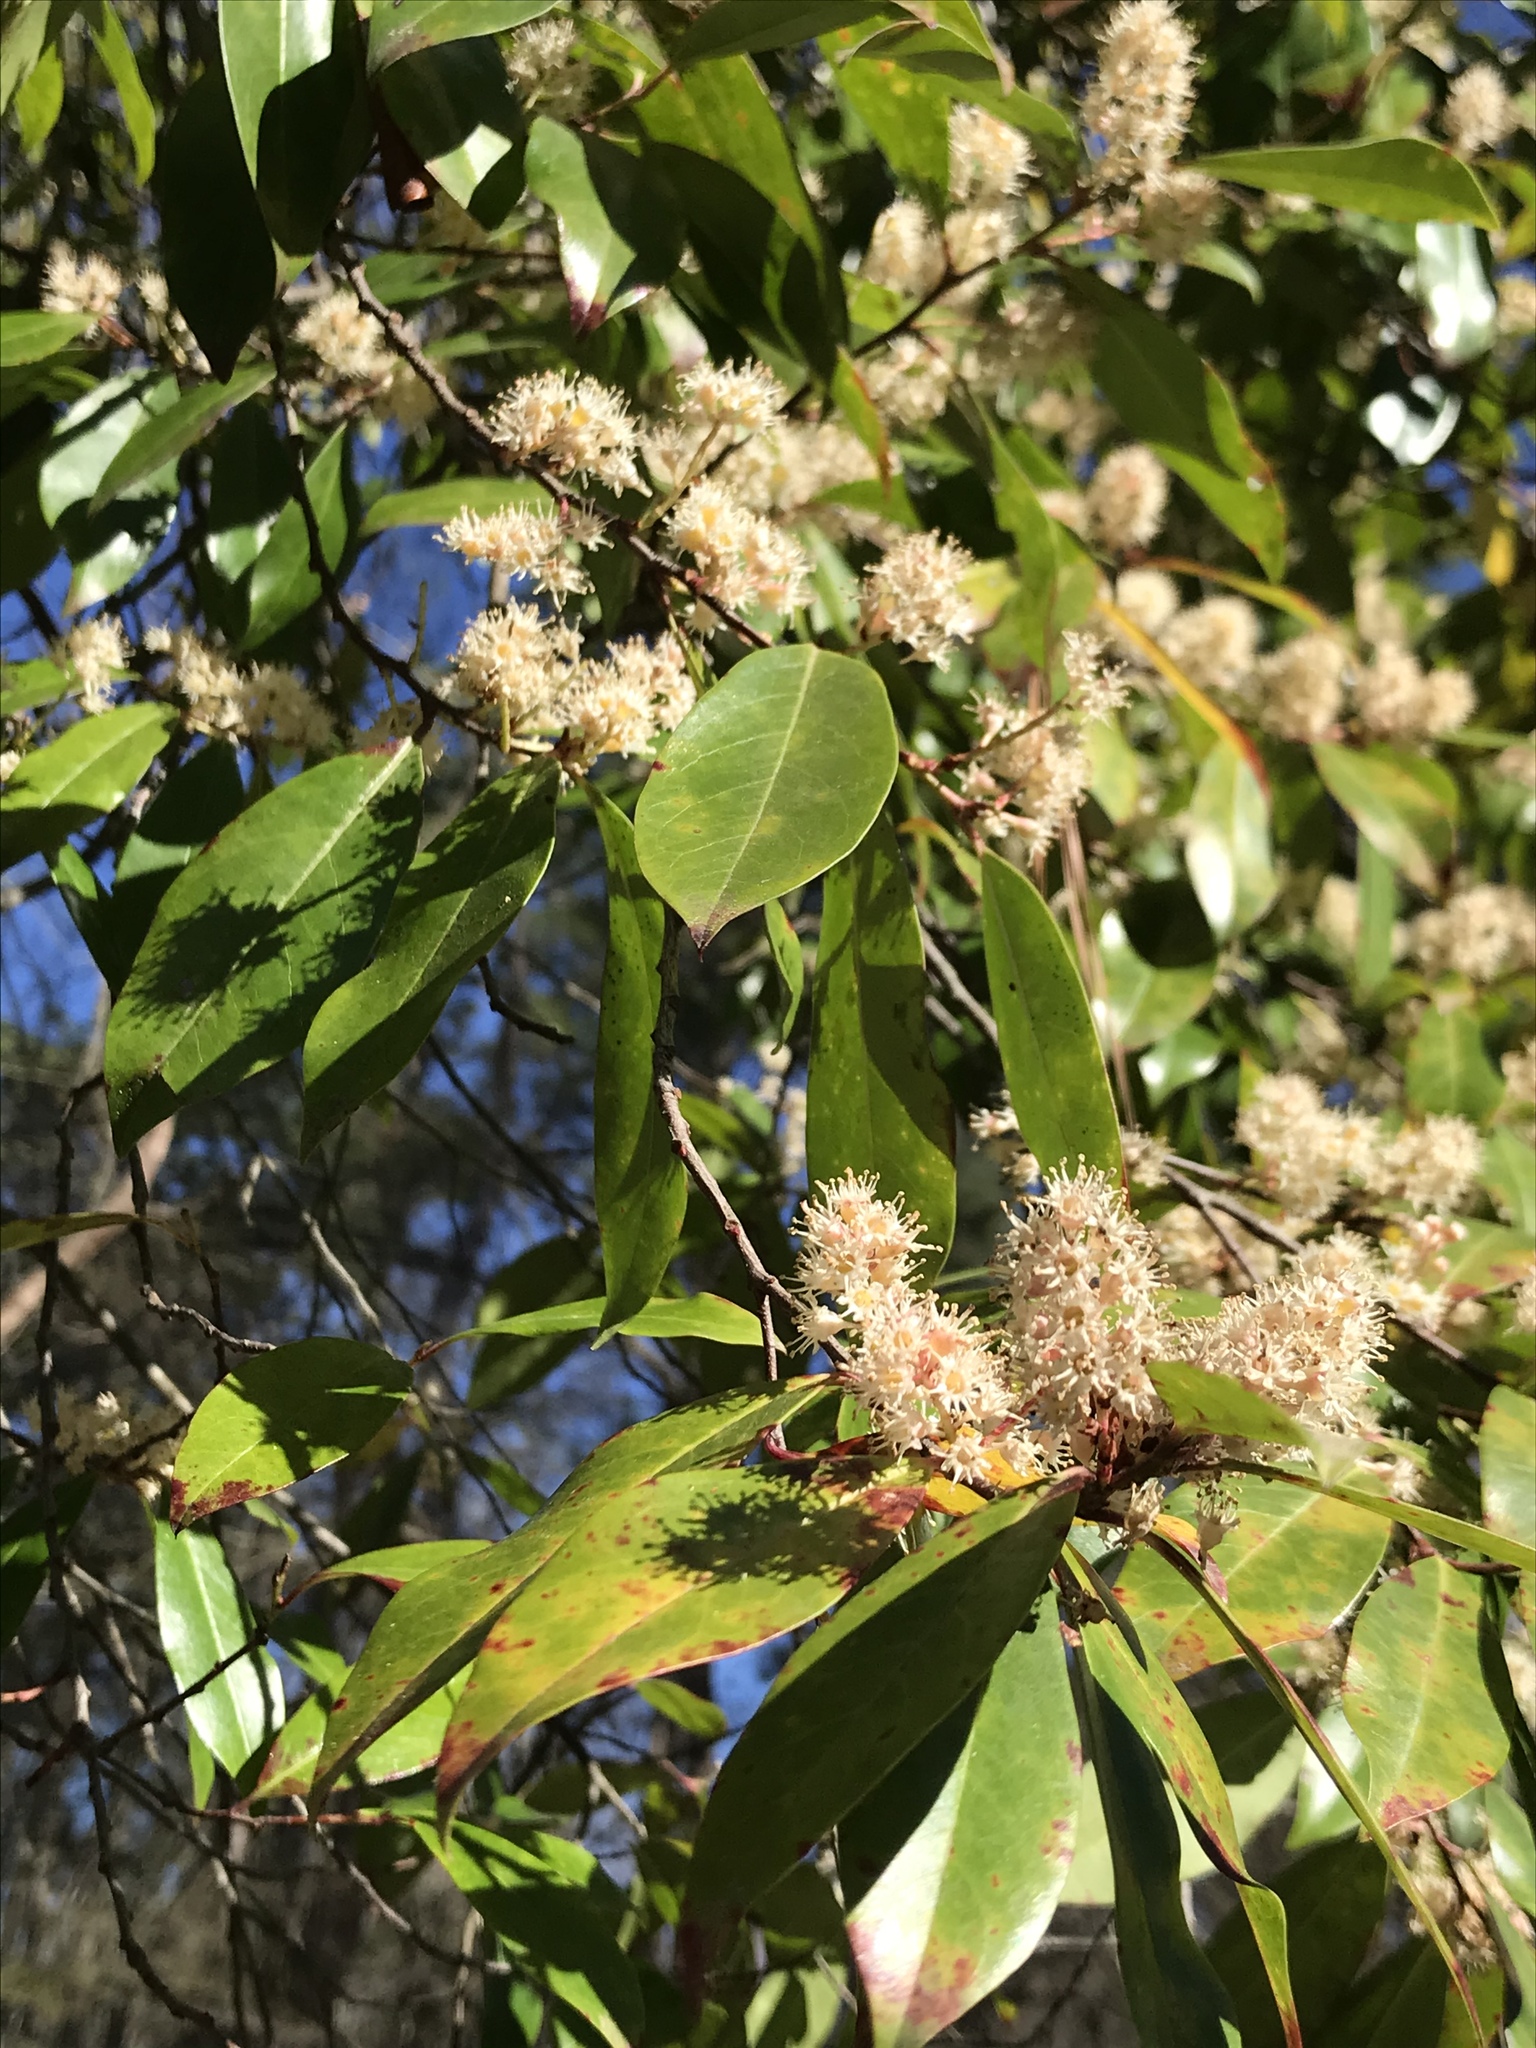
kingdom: Plantae
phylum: Tracheophyta
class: Magnoliopsida
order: Rosales
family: Rosaceae
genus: Prunus
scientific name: Prunus caroliniana
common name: Carolina laurel cherry
